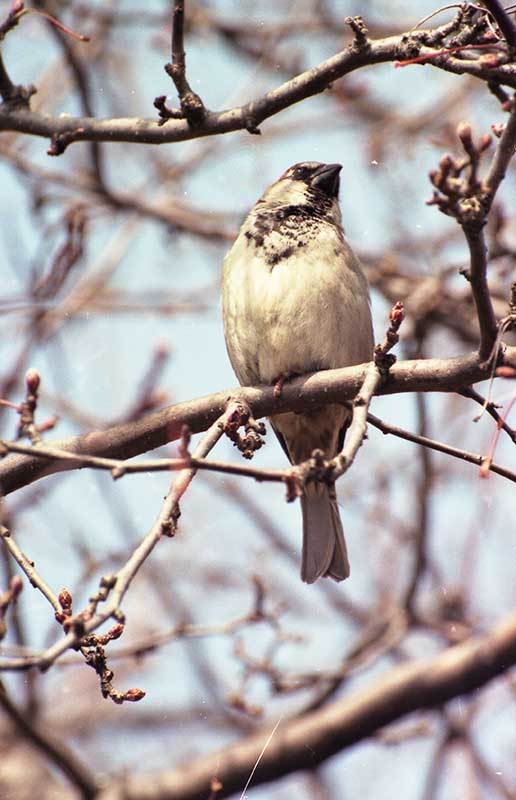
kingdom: Animalia
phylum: Chordata
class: Aves
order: Passeriformes
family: Passeridae
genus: Passer
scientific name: Passer domesticus
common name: House sparrow
